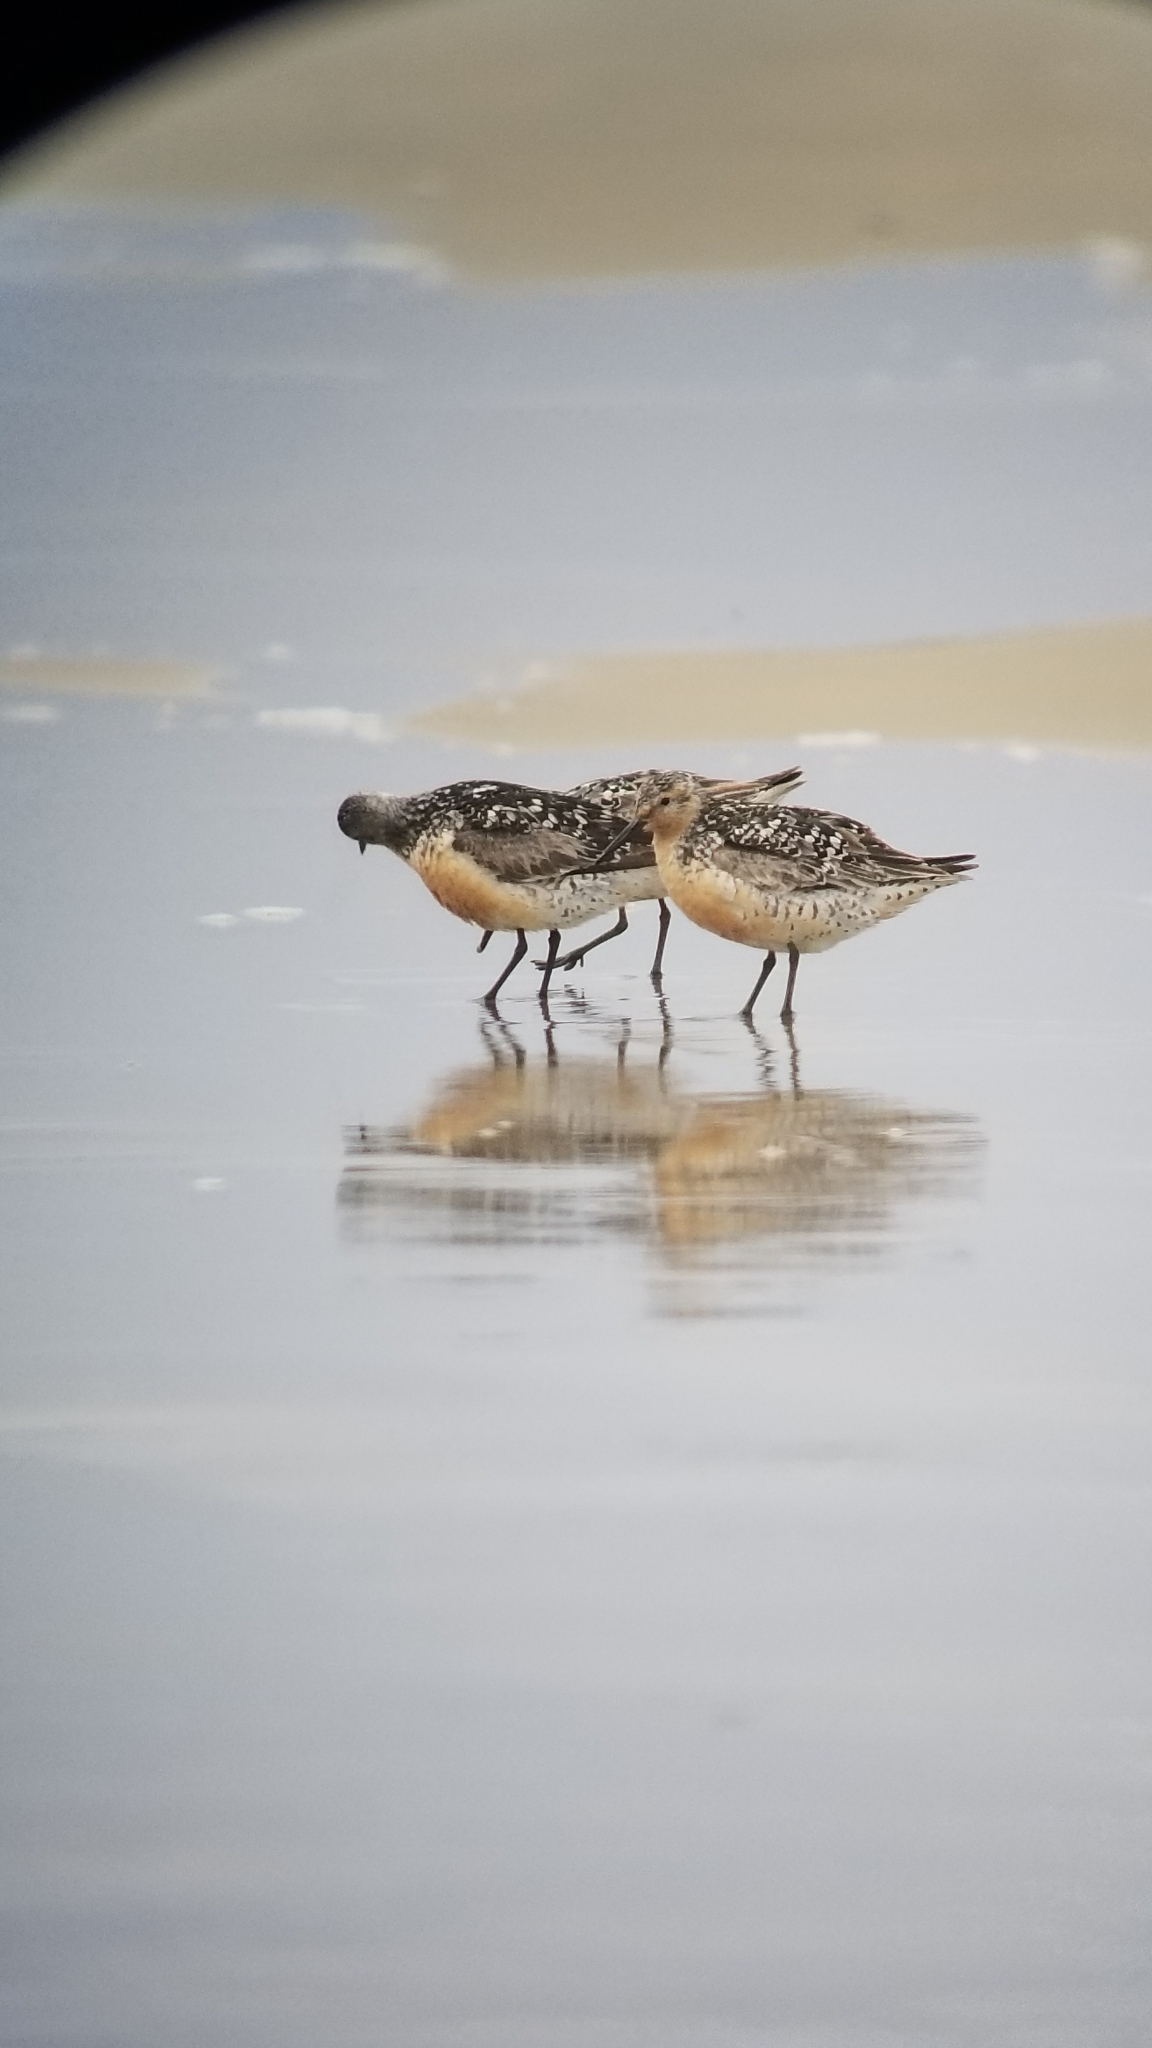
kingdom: Animalia
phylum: Chordata
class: Aves
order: Charadriiformes
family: Scolopacidae
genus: Calidris
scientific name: Calidris canutus
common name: Red knot
